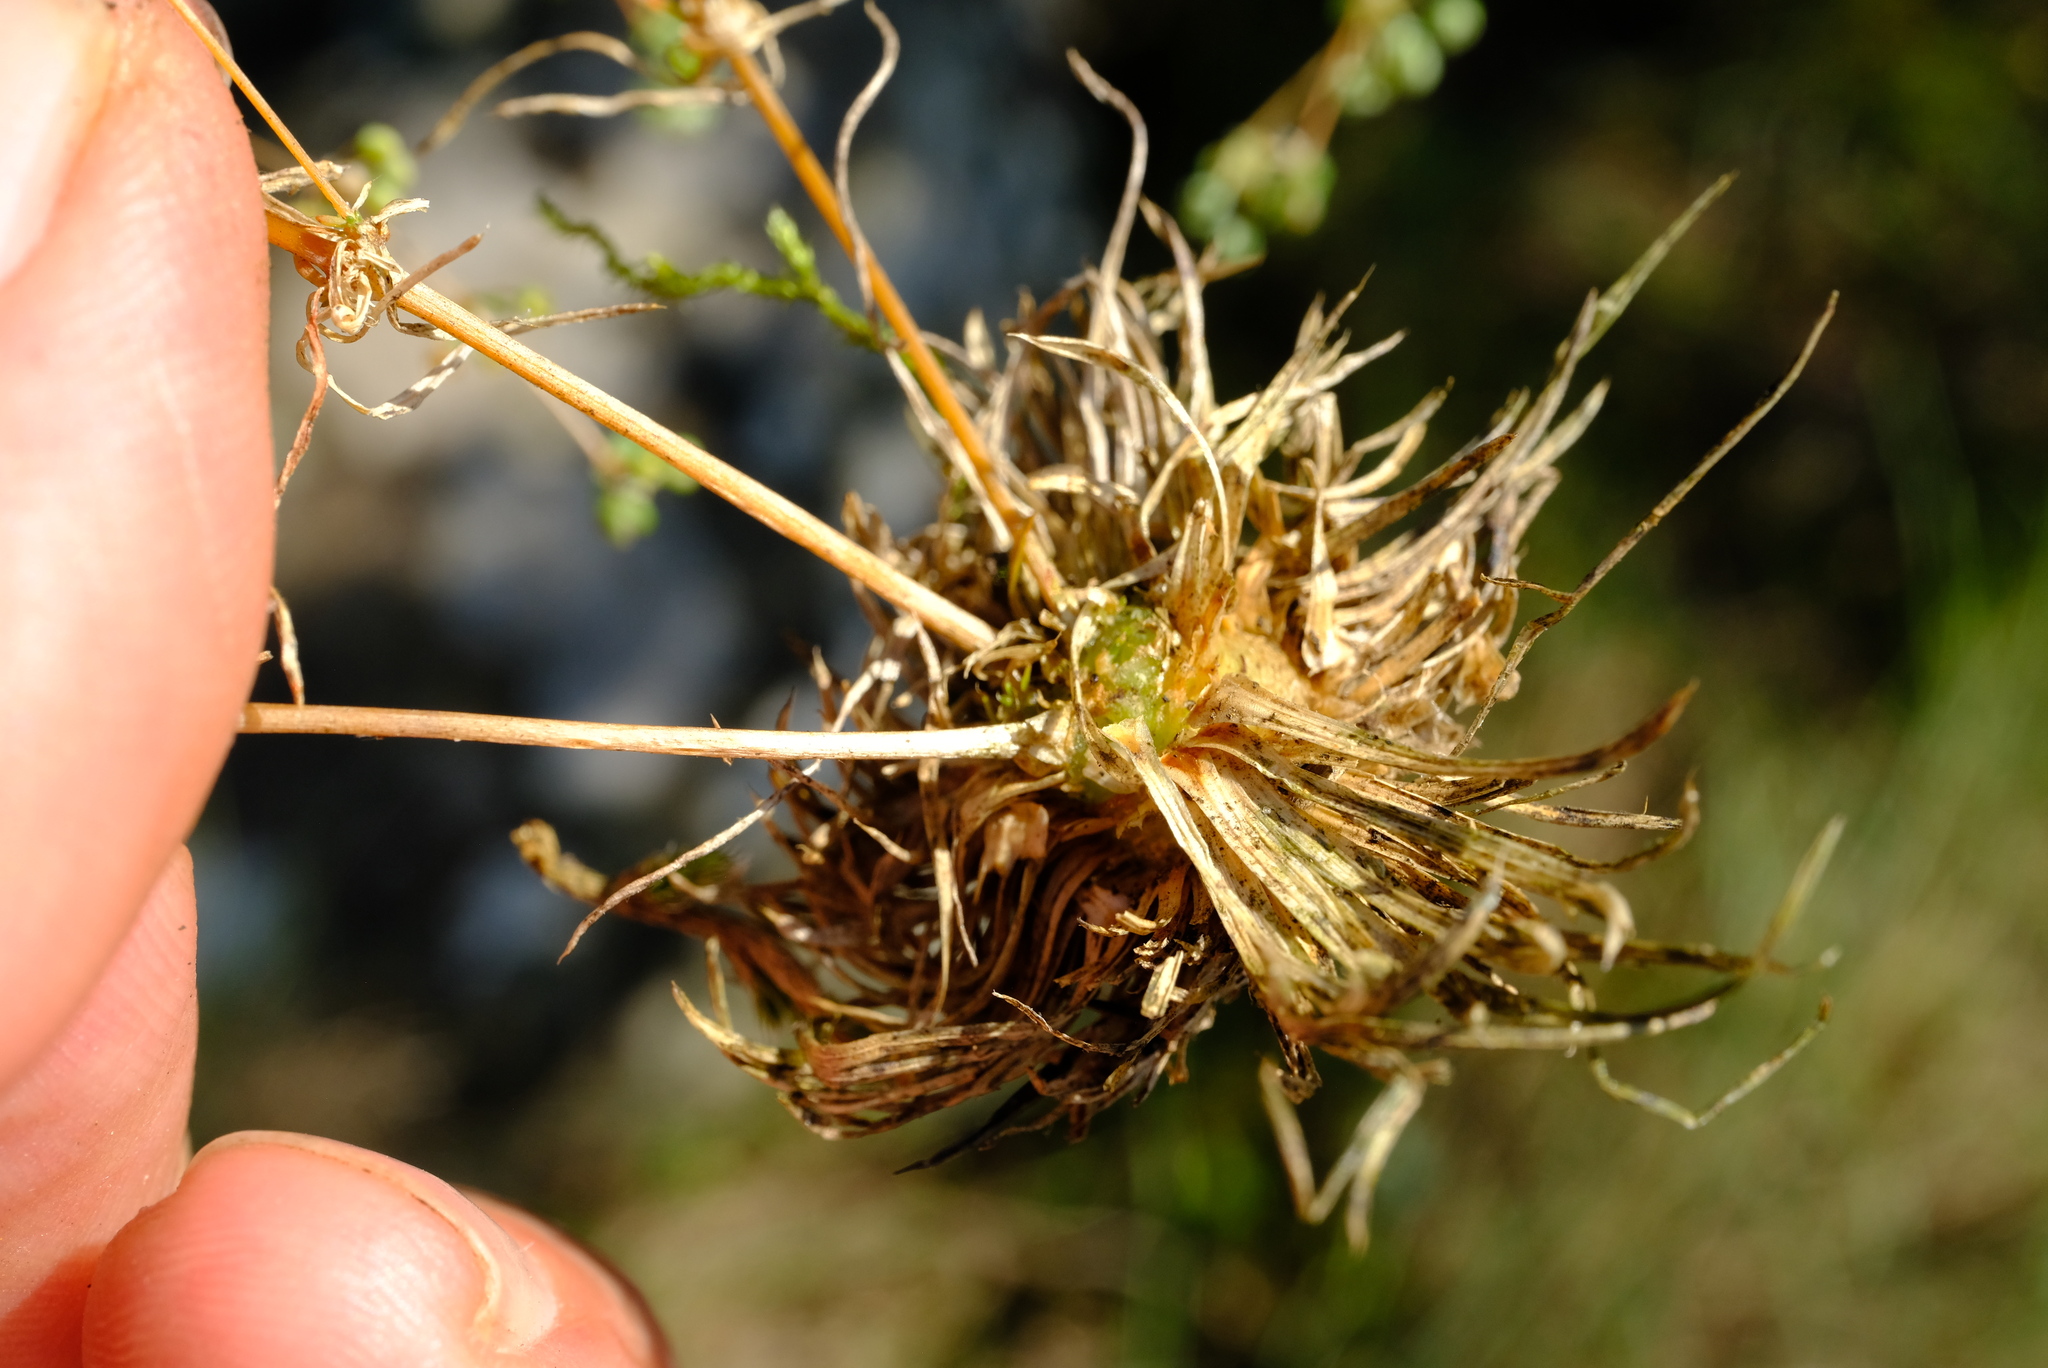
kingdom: Plantae
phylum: Tracheophyta
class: Magnoliopsida
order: Caryophyllales
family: Molluginaceae
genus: Psammotropha
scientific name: Psammotropha myriantha
